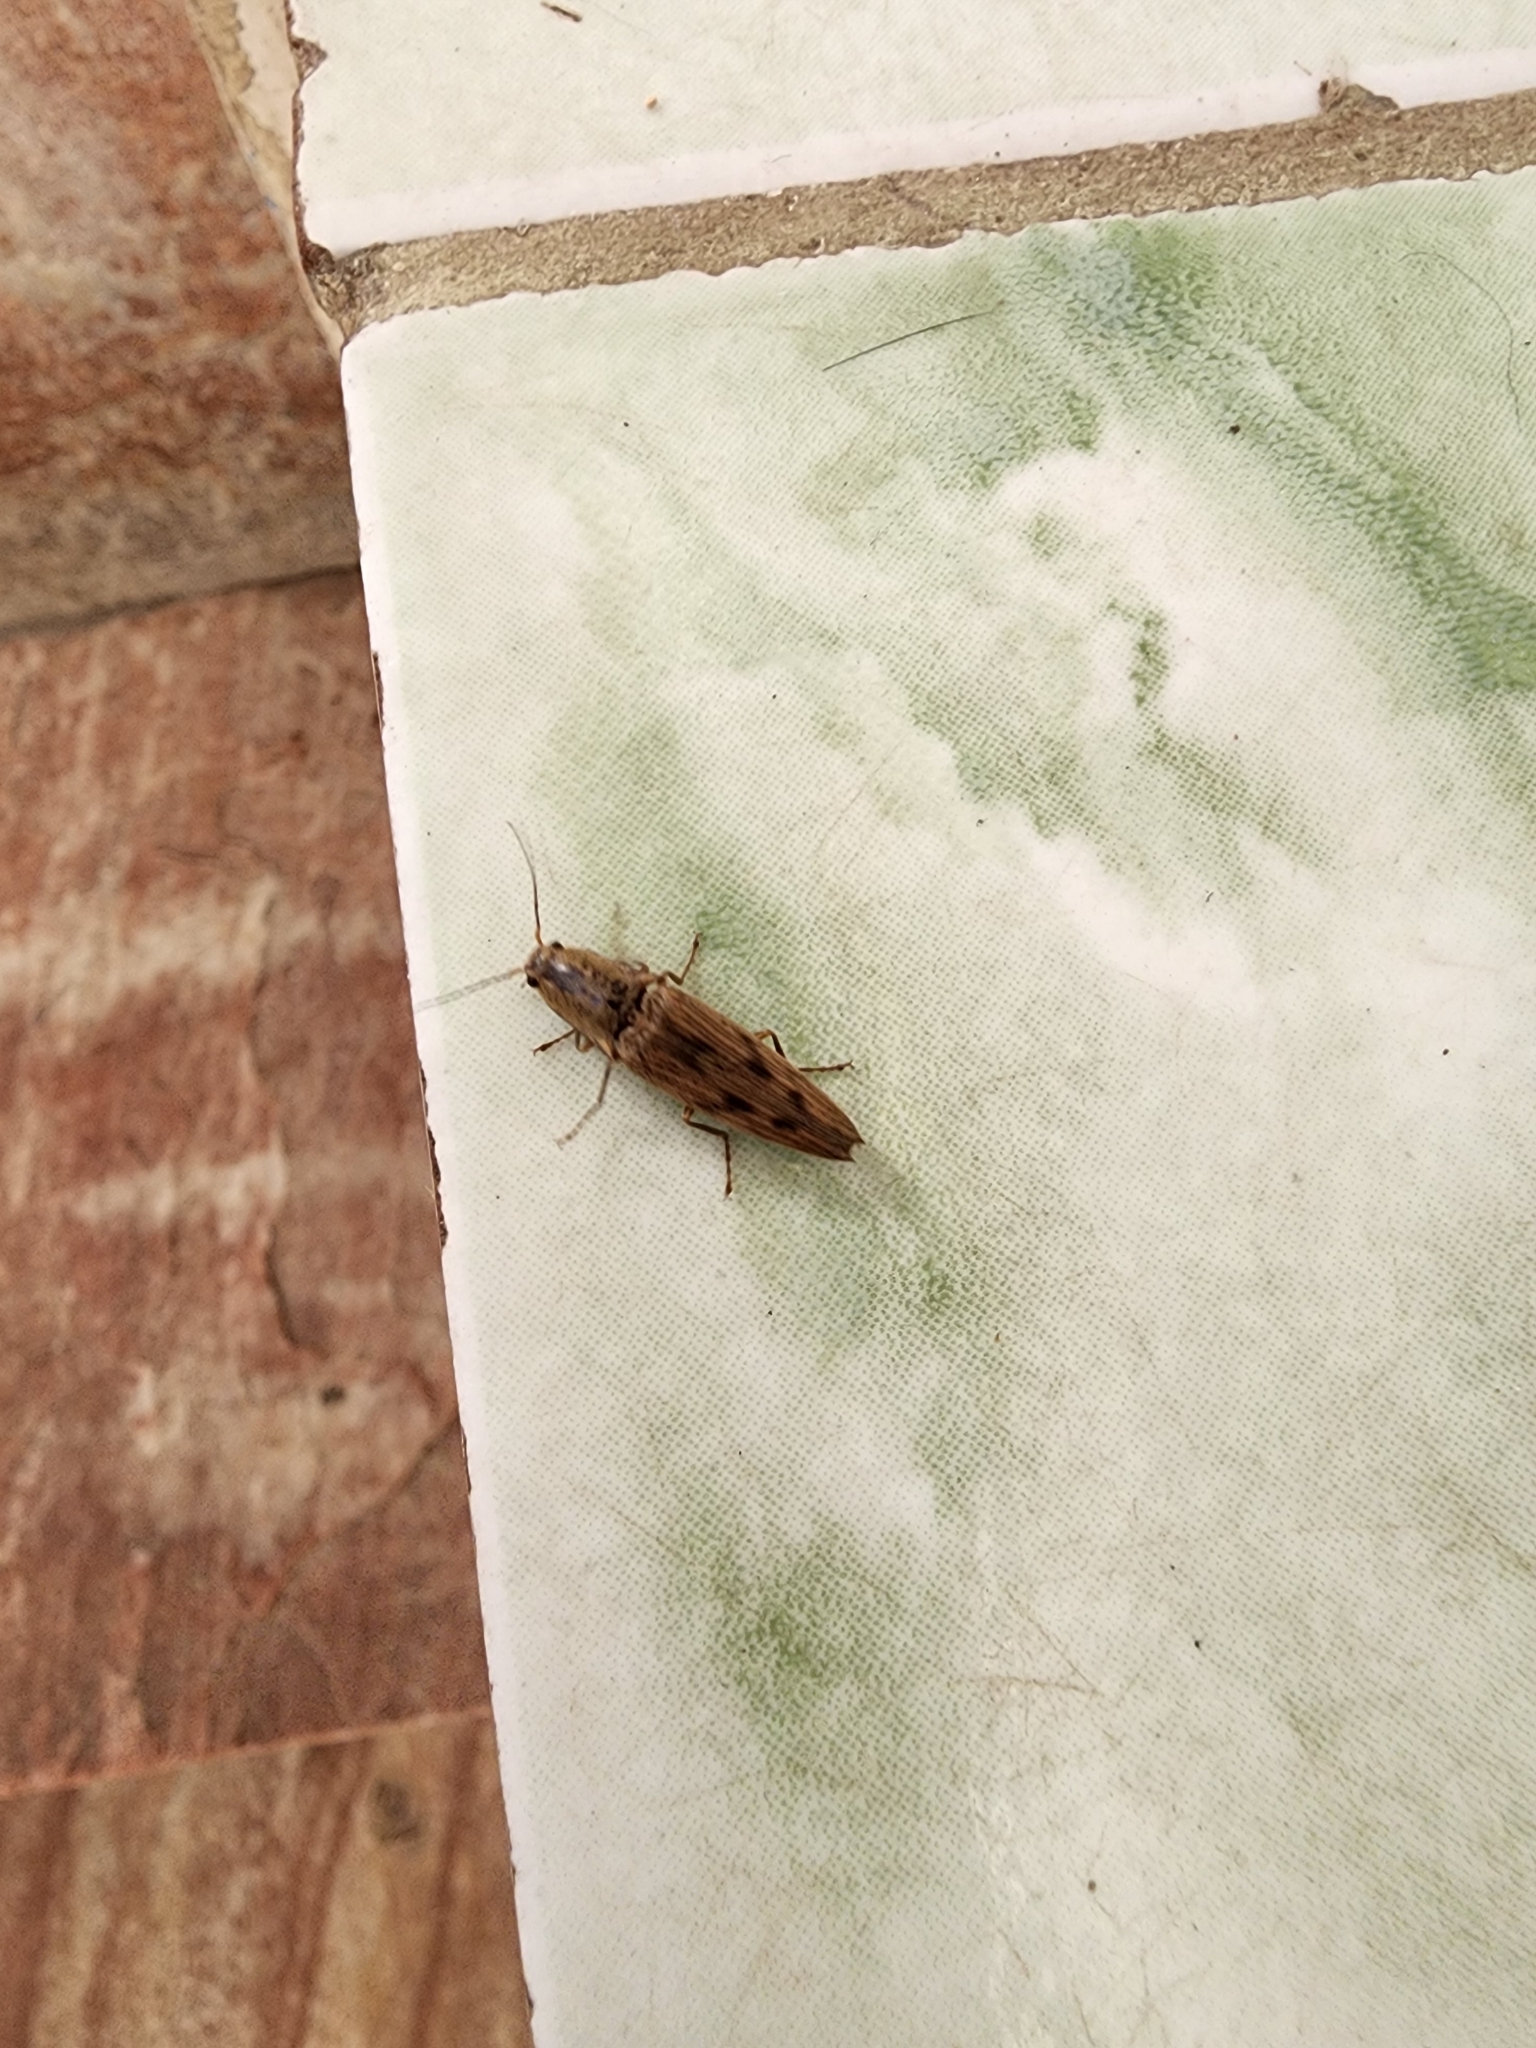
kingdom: Animalia
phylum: Arthropoda
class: Insecta
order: Coleoptera
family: Elateridae
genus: Monocrepidius
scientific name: Monocrepidius
